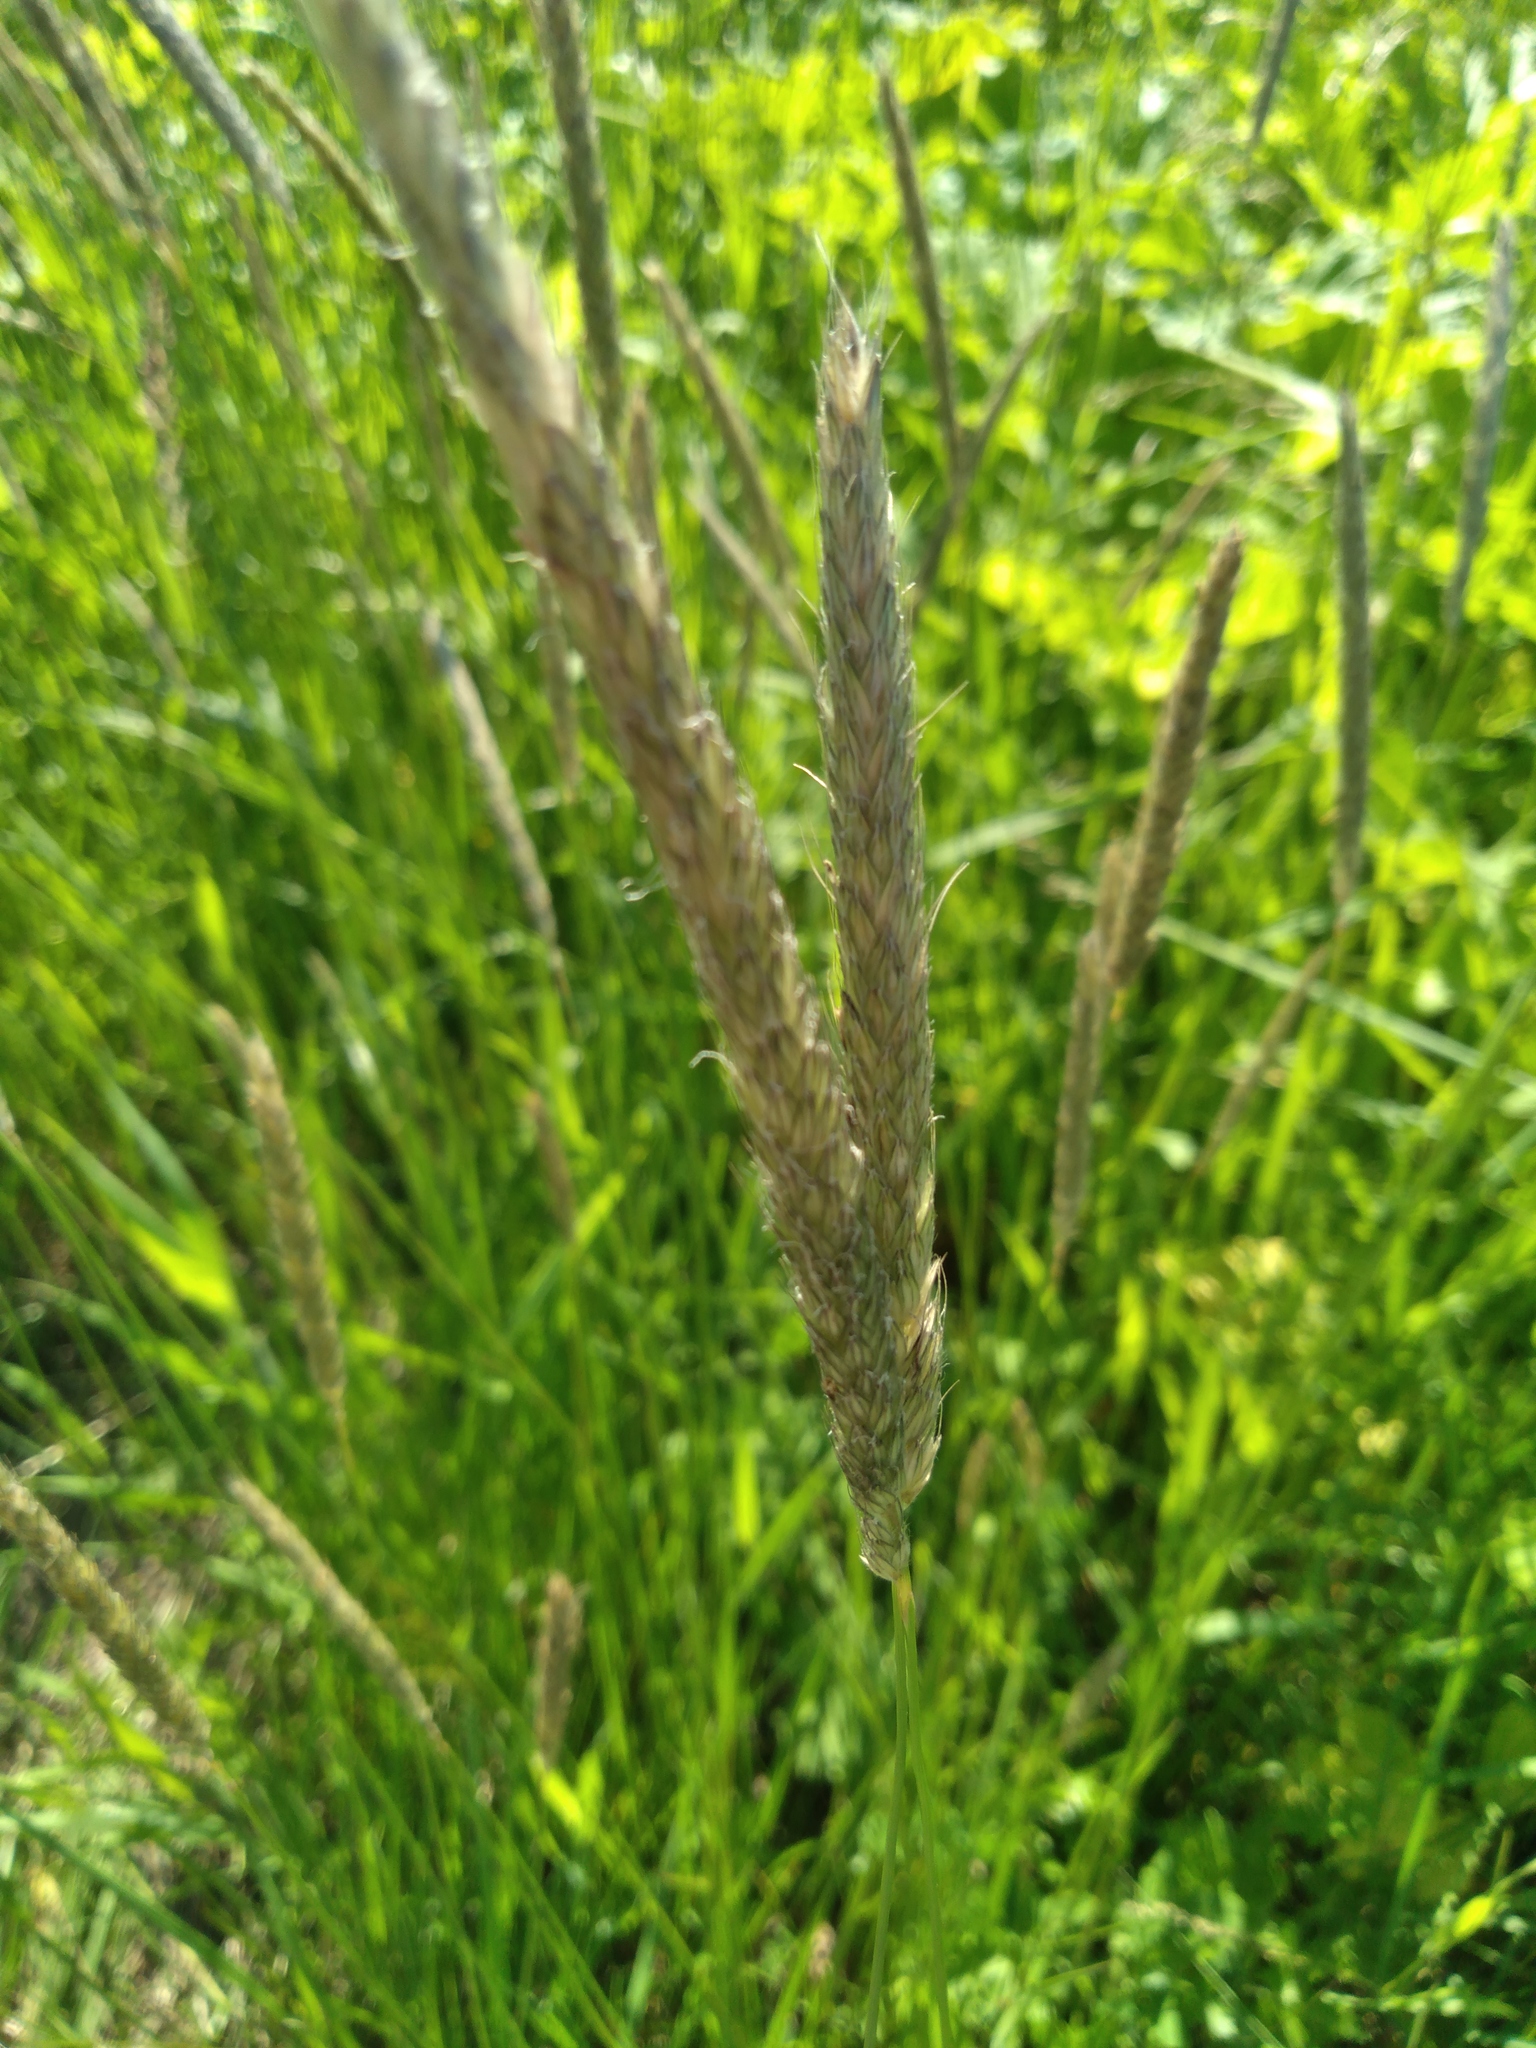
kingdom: Plantae
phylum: Tracheophyta
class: Liliopsida
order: Poales
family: Poaceae
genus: Alopecurus
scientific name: Alopecurus pratensis
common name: Meadow foxtail
